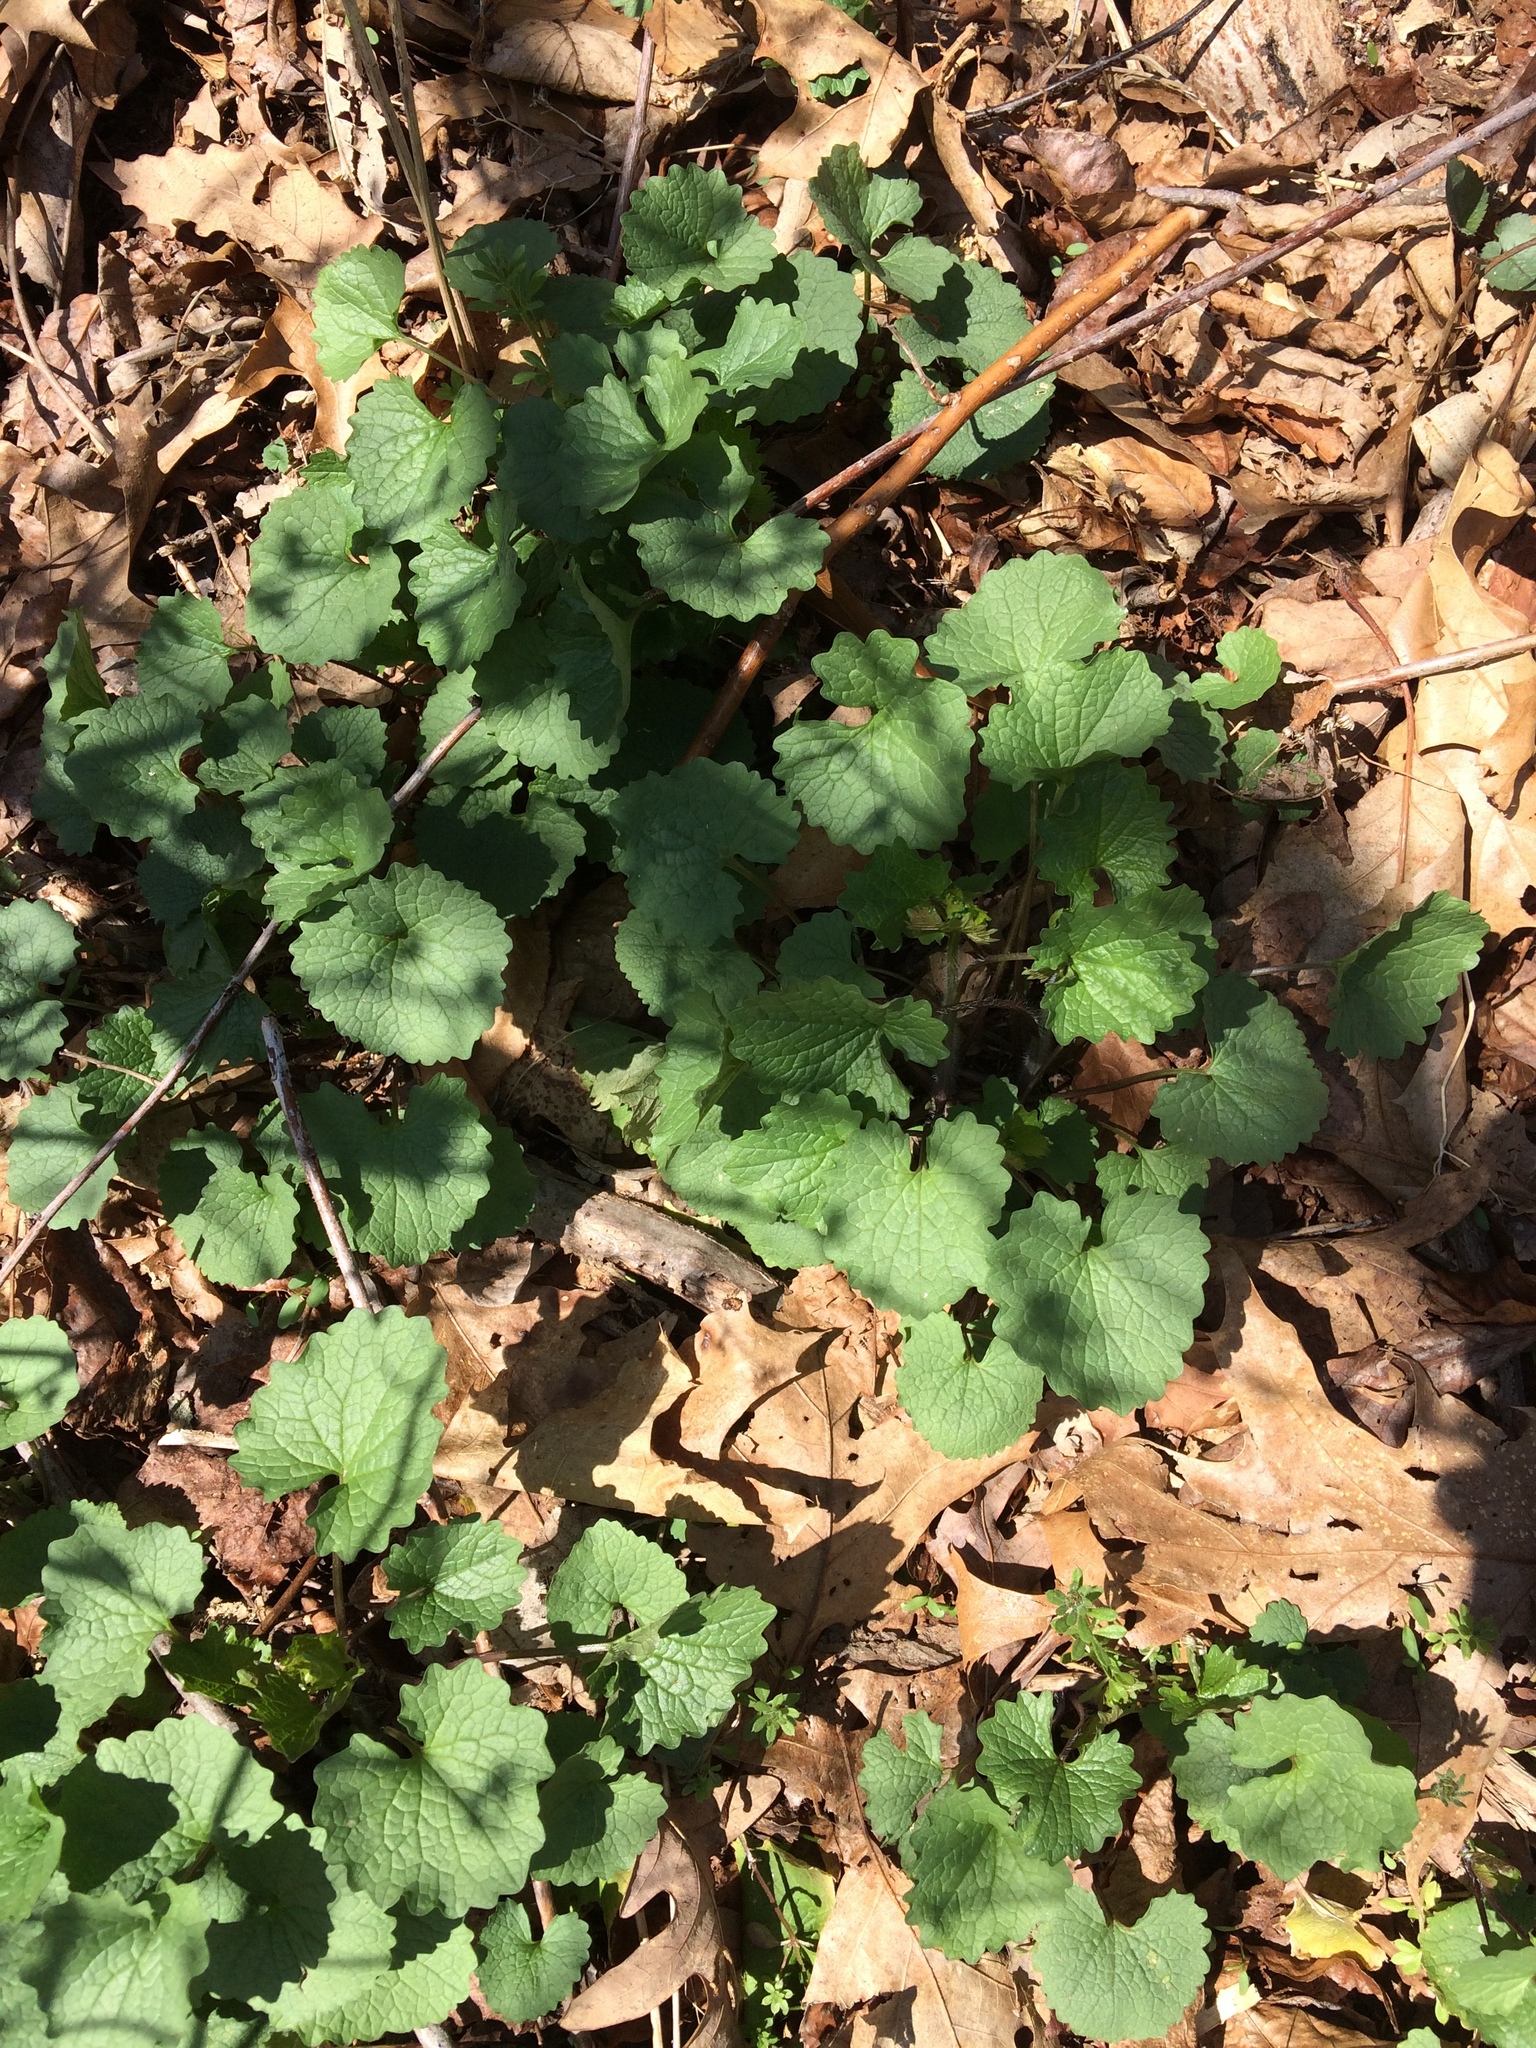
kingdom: Plantae
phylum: Tracheophyta
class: Magnoliopsida
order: Brassicales
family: Brassicaceae
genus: Alliaria
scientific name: Alliaria petiolata
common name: Garlic mustard
